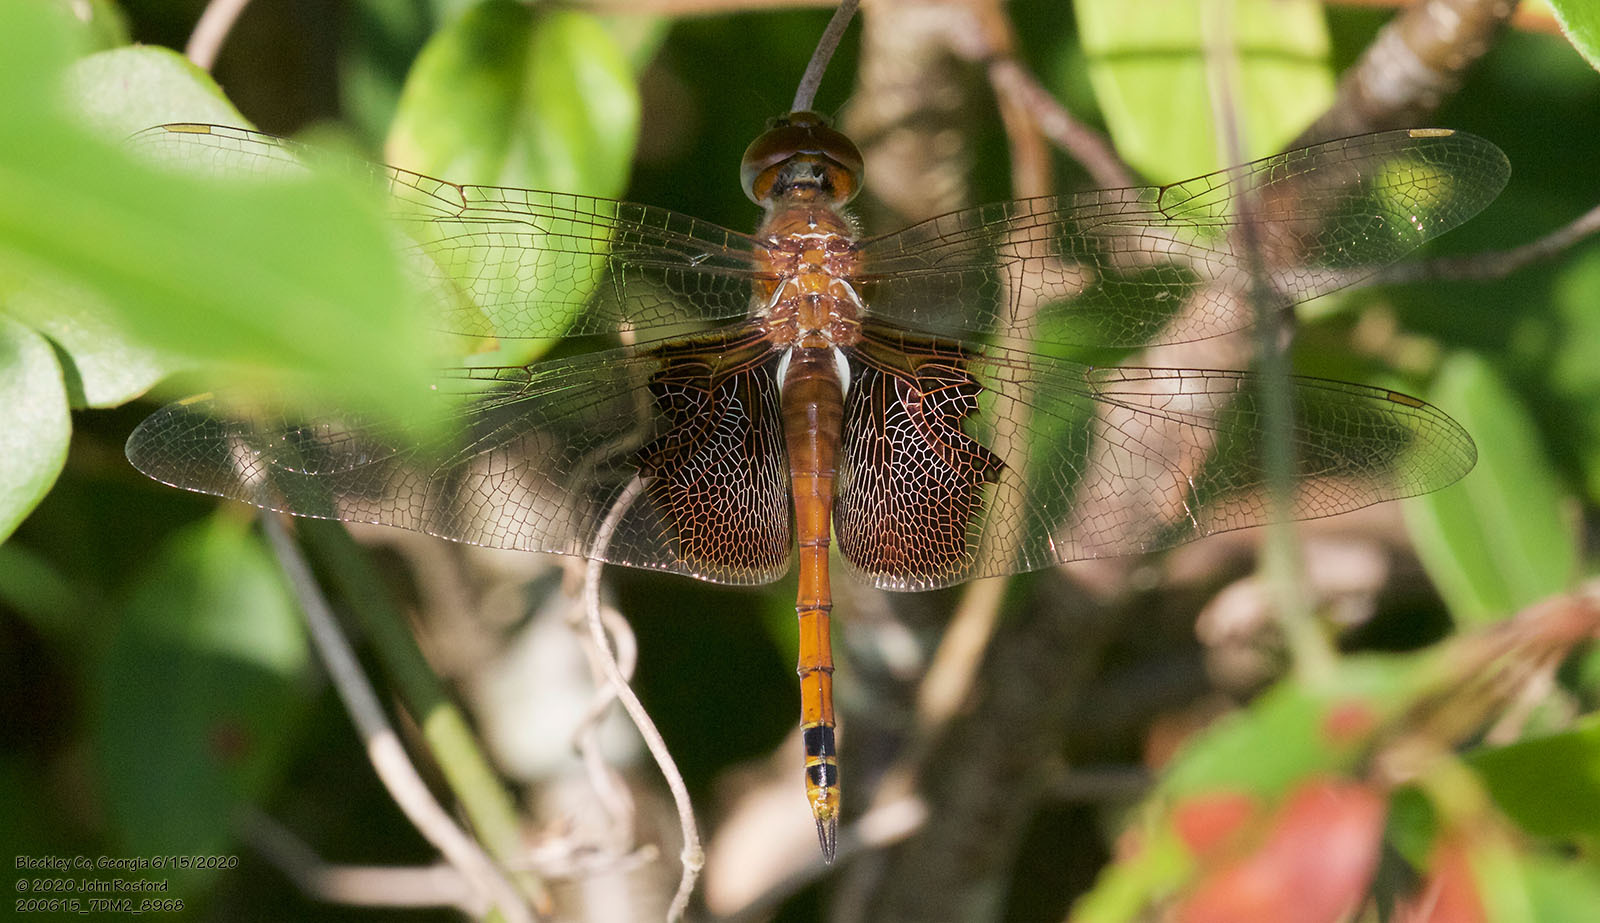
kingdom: Animalia
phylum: Arthropoda
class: Insecta
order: Odonata
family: Libellulidae
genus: Tramea
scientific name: Tramea carolina
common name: Carolina saddlebags
